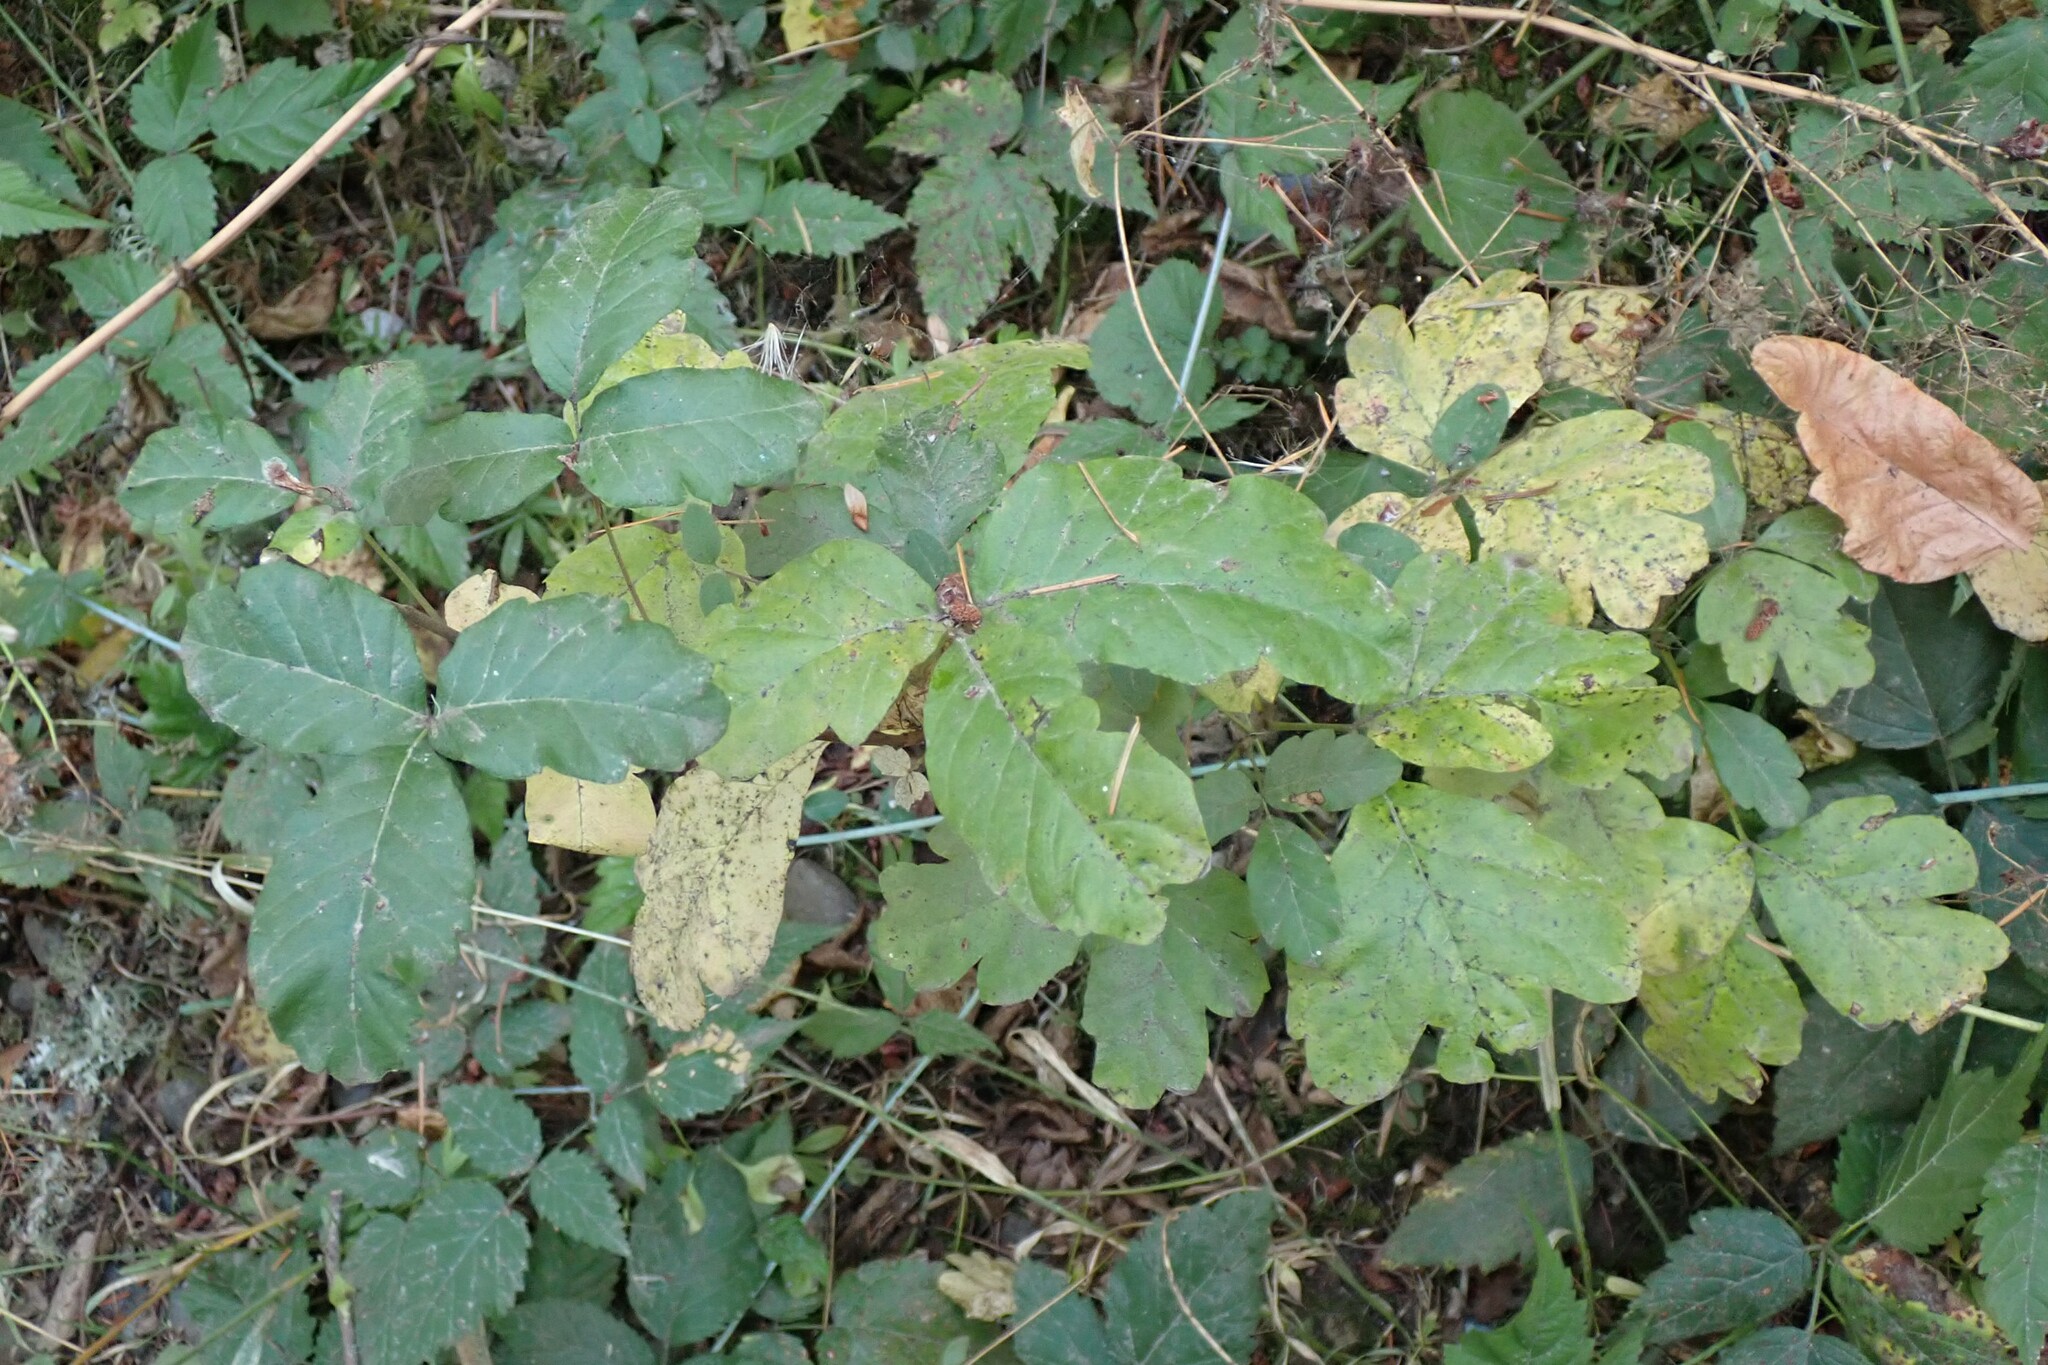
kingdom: Plantae
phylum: Tracheophyta
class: Magnoliopsida
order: Sapindales
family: Anacardiaceae
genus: Toxicodendron
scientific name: Toxicodendron diversilobum
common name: Pacific poison-oak
